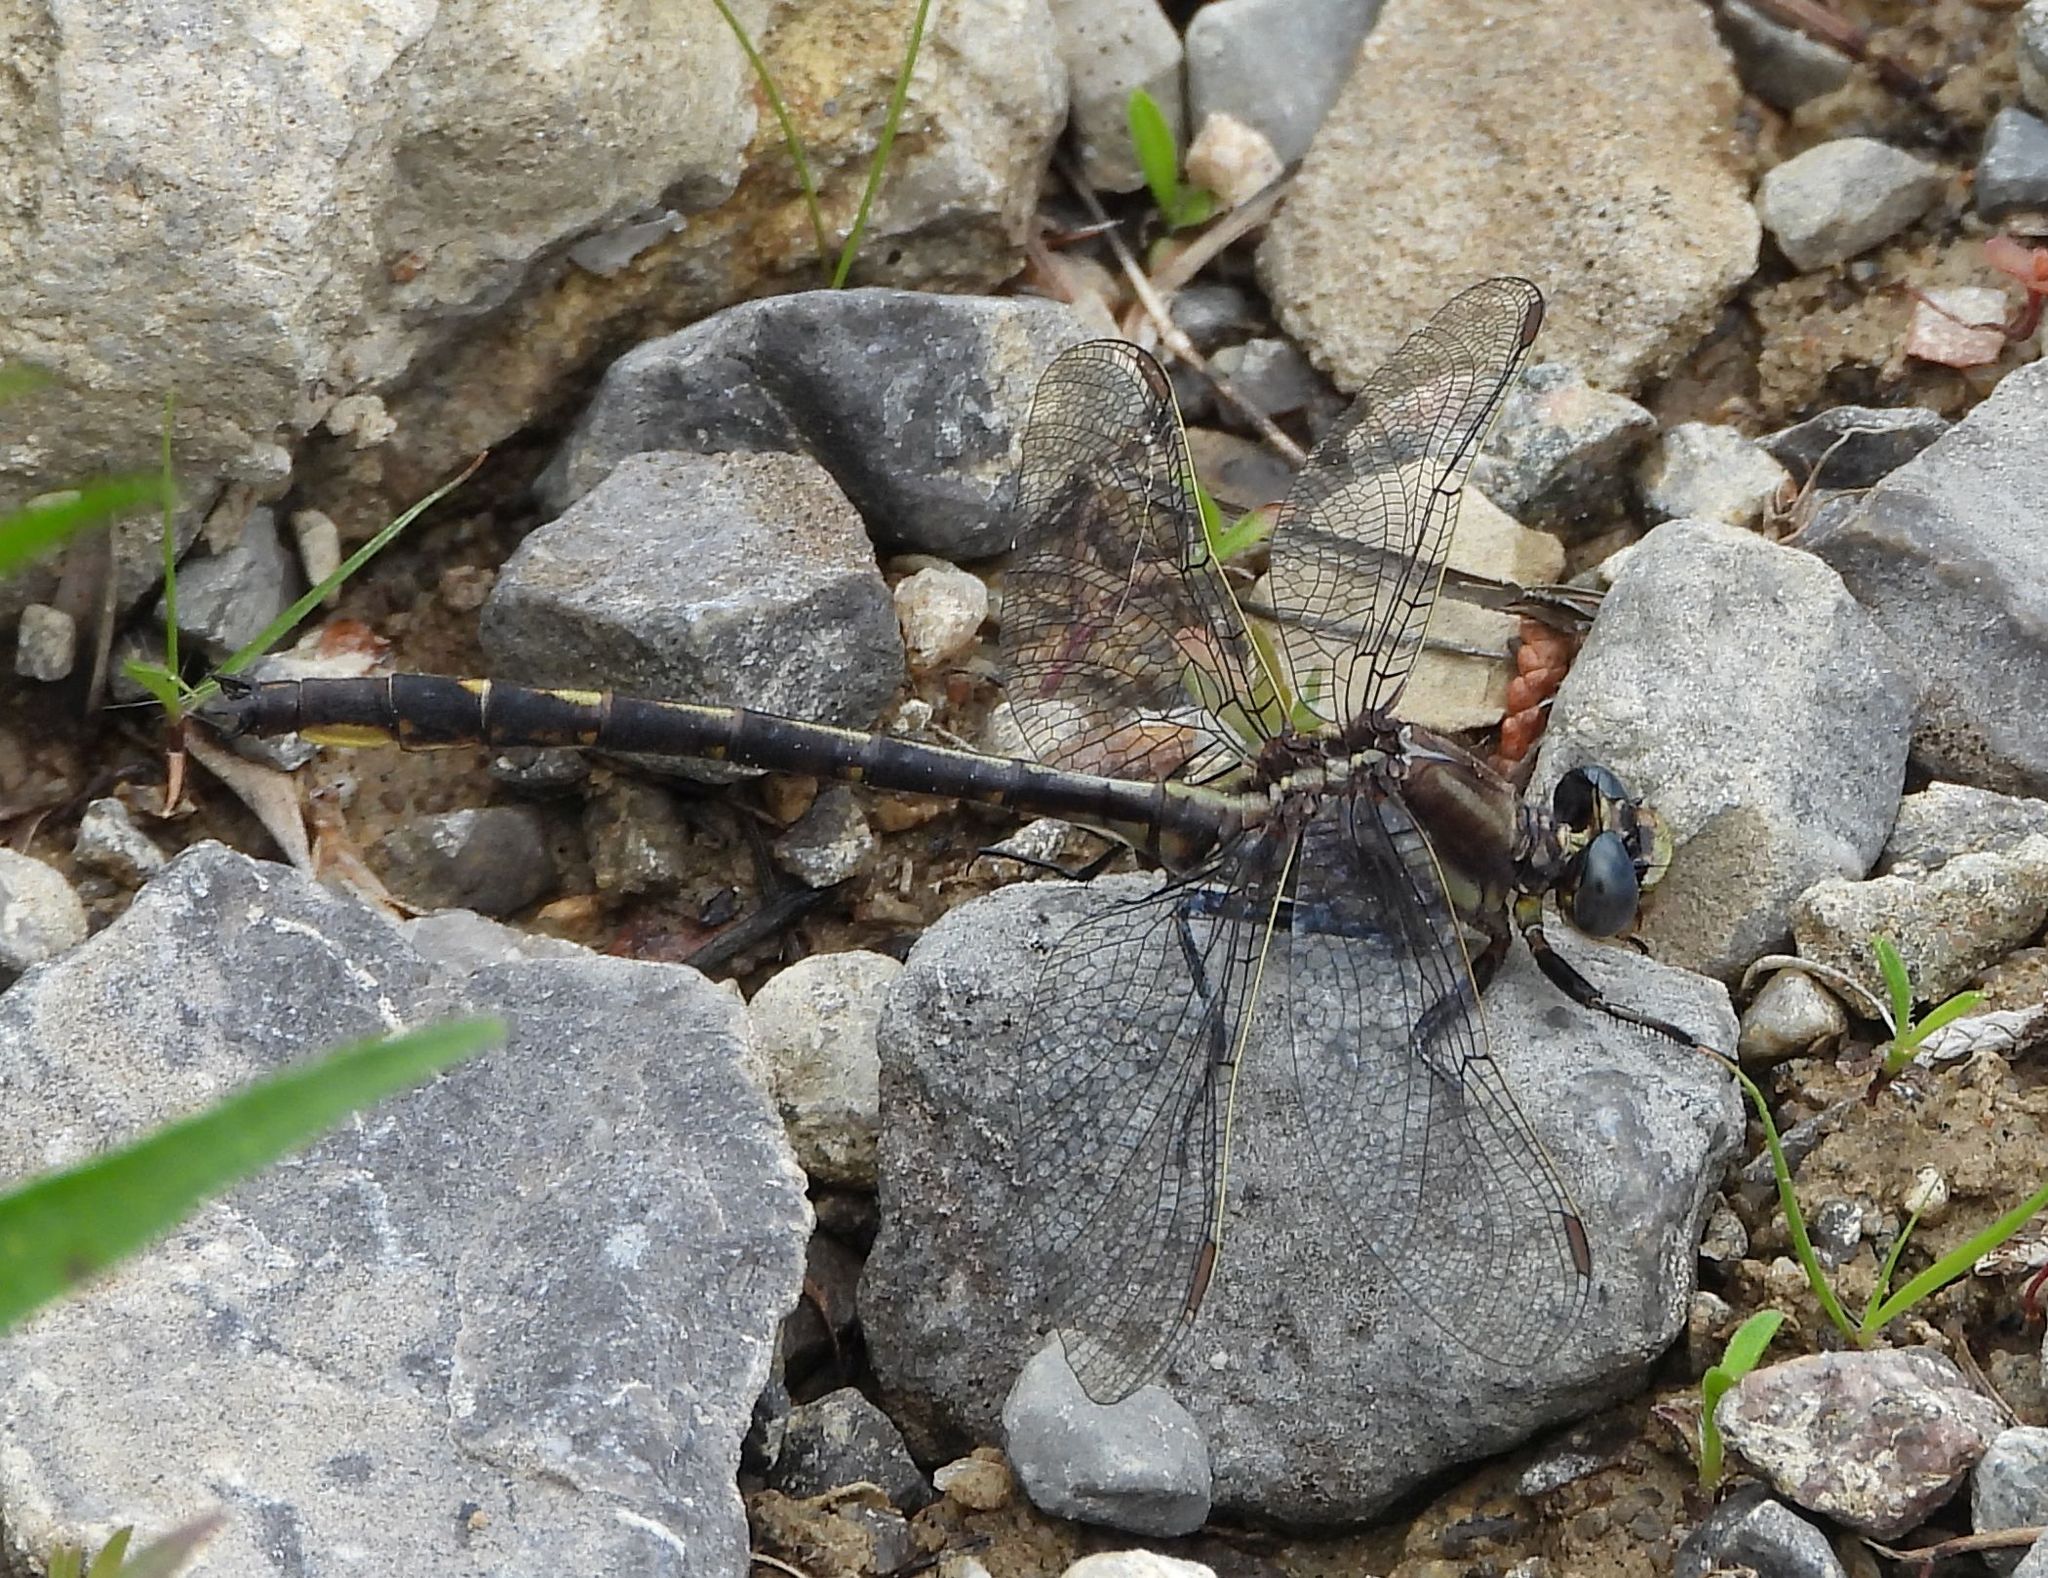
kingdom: Animalia
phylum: Arthropoda
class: Insecta
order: Odonata
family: Gomphidae
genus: Phanogomphus
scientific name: Phanogomphus spicatus
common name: Dusky clubtail
